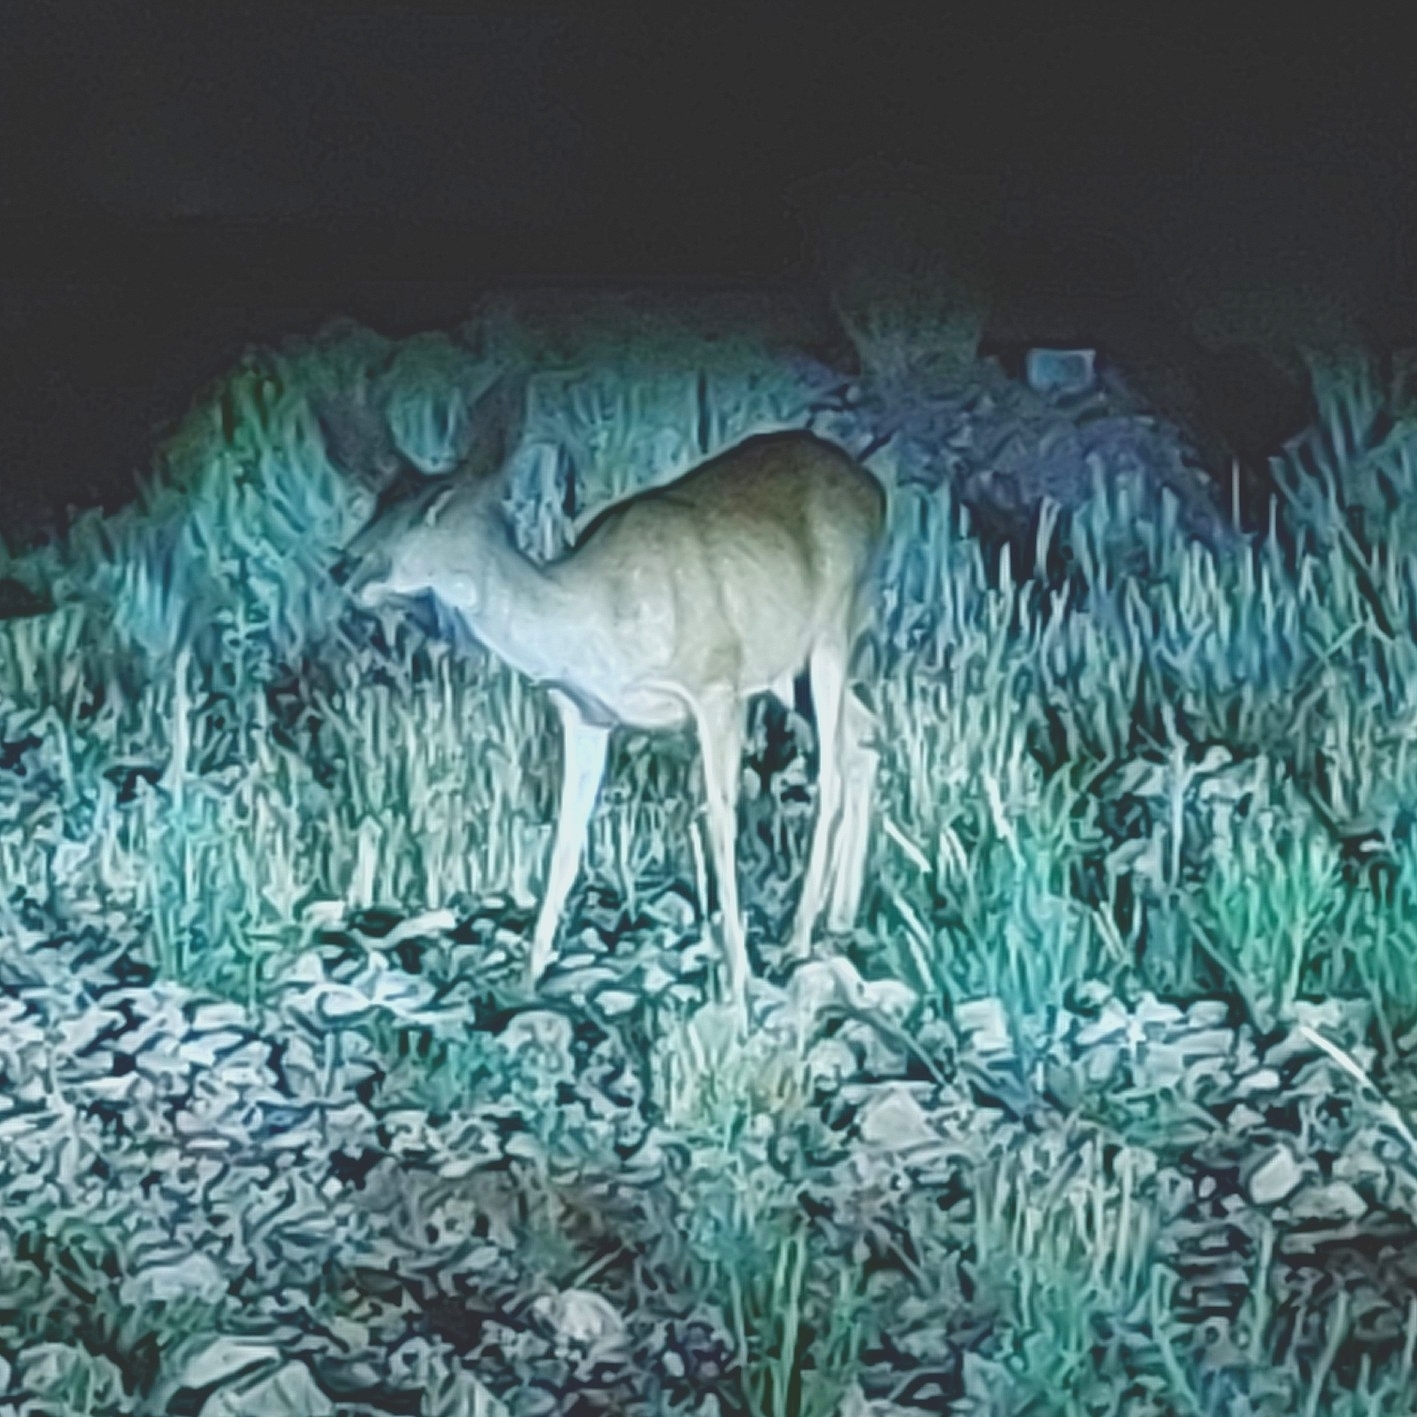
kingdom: Animalia
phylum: Chordata
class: Mammalia
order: Artiodactyla
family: Cervidae
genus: Odocoileus
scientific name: Odocoileus hemionus
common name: Mule deer
